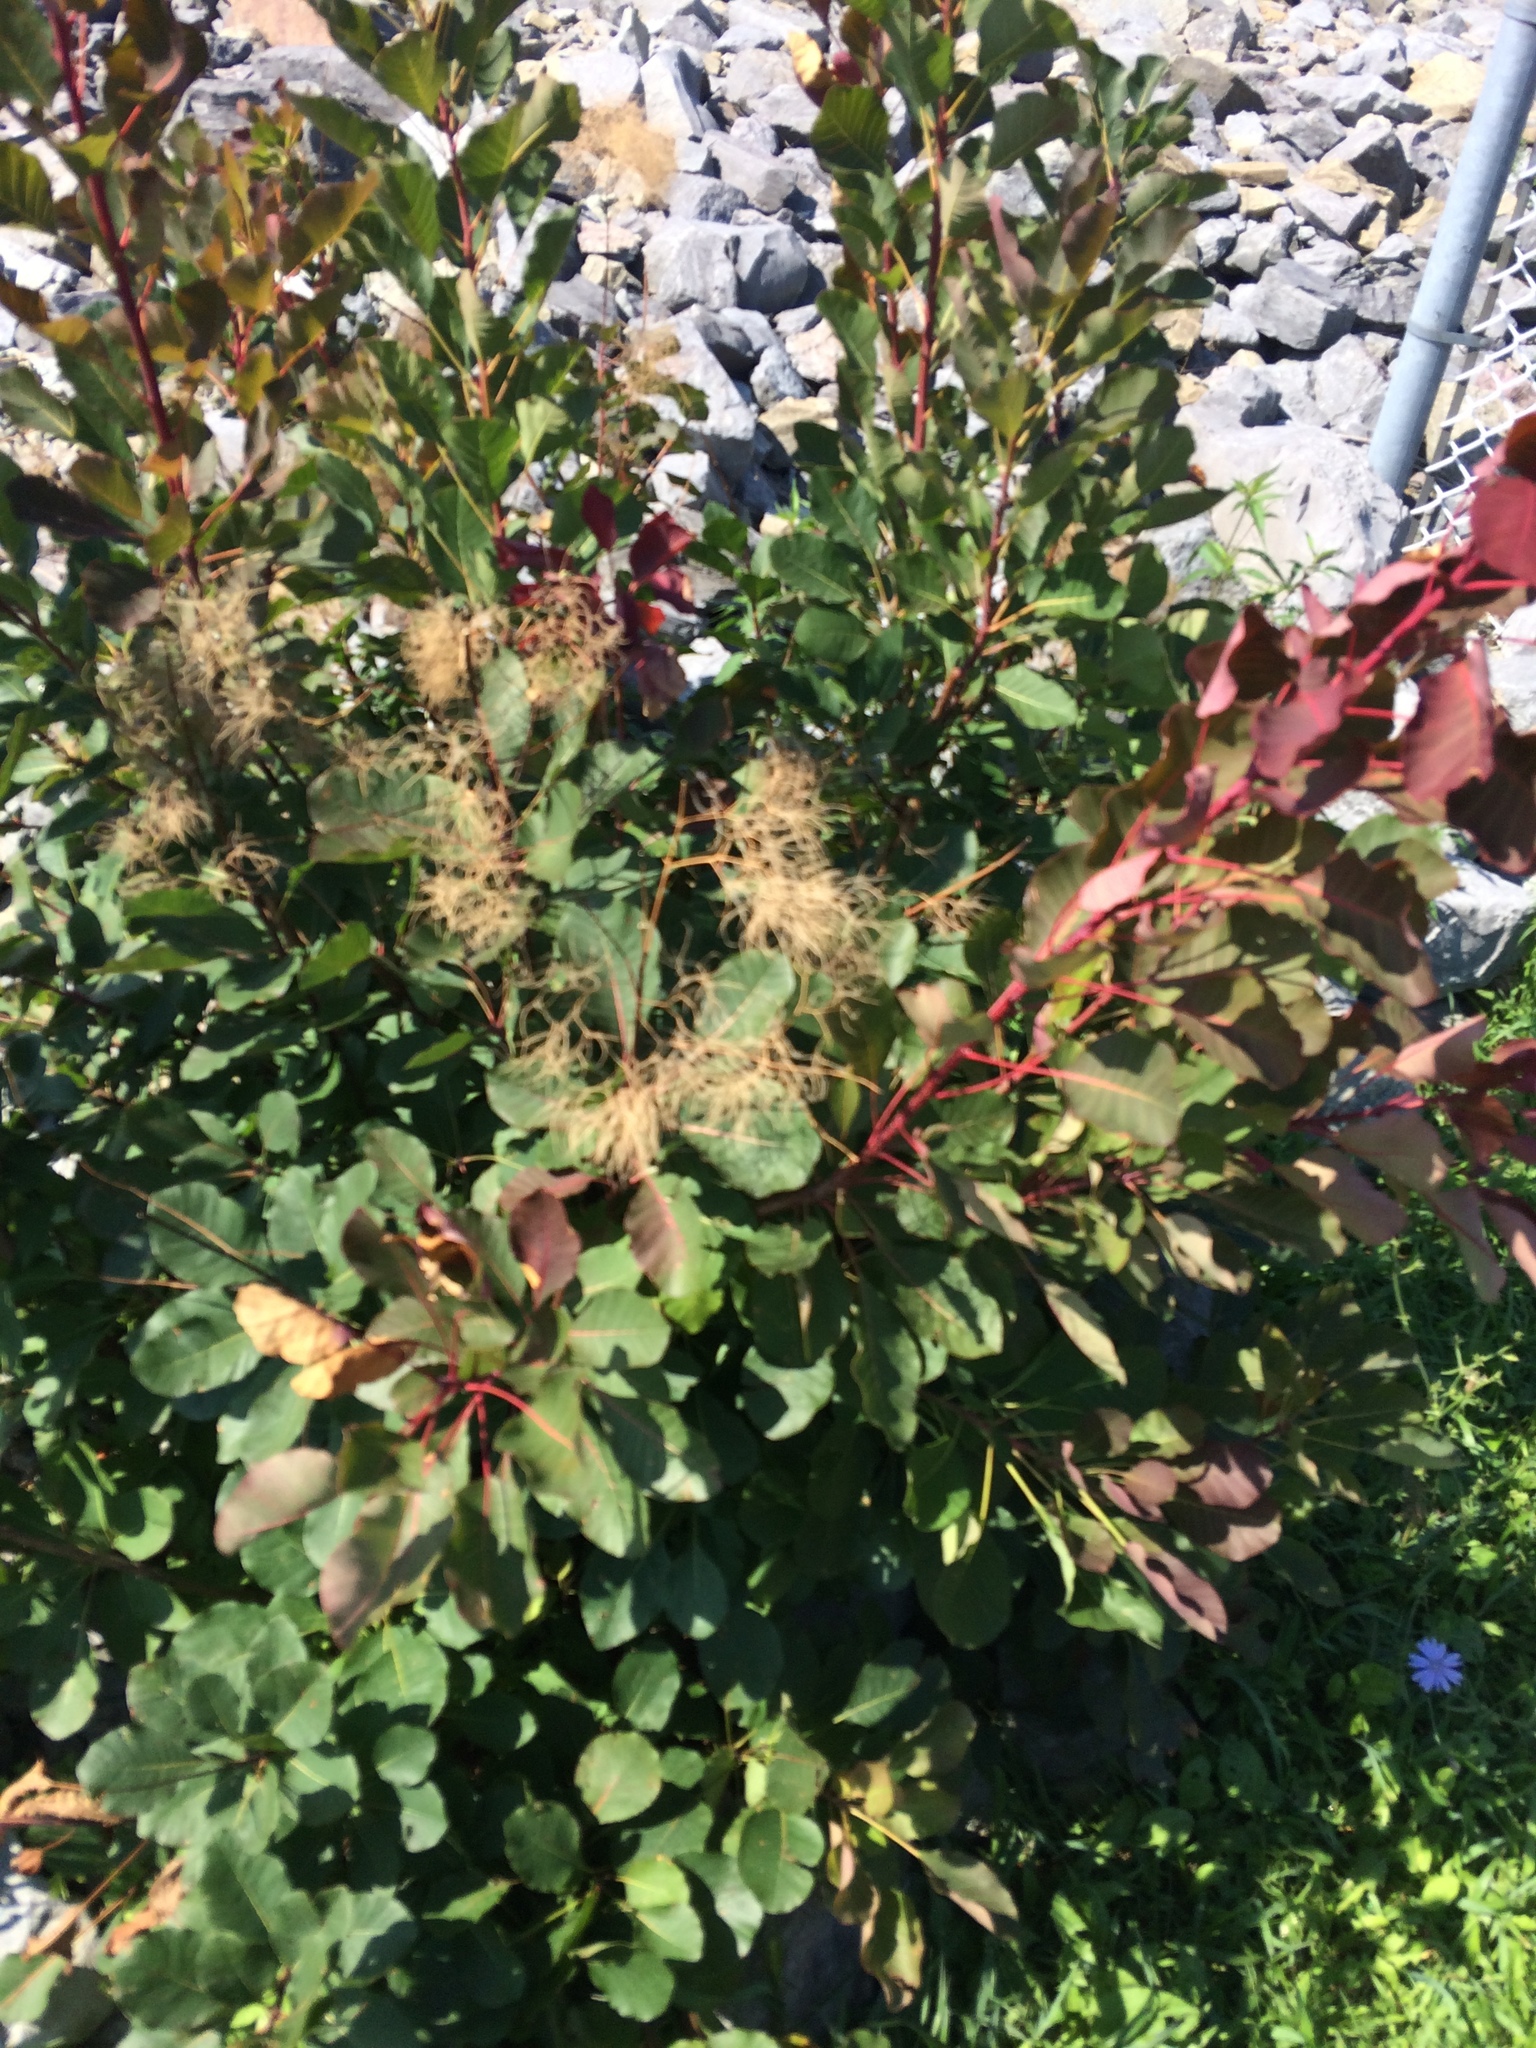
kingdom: Plantae
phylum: Tracheophyta
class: Magnoliopsida
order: Sapindales
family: Anacardiaceae
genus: Cotinus
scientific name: Cotinus coggygria
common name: Smoke-tree
